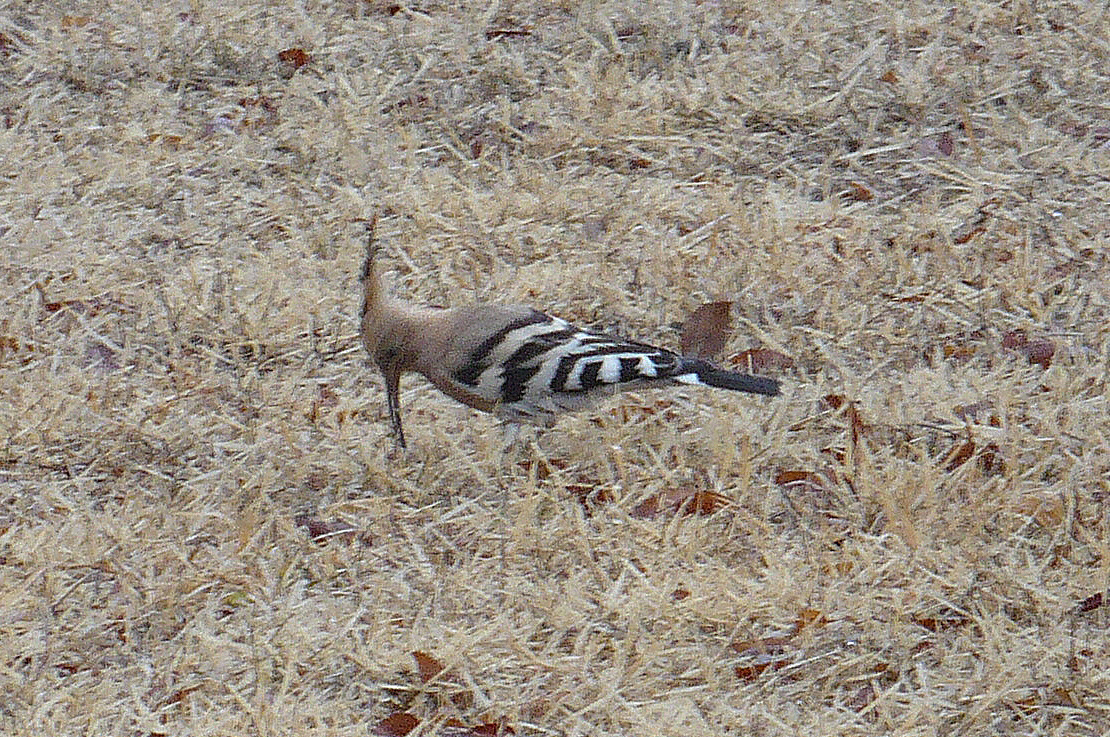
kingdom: Animalia
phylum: Chordata
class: Aves
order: Bucerotiformes
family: Upupidae
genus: Upupa
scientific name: Upupa epops
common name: Eurasian hoopoe
